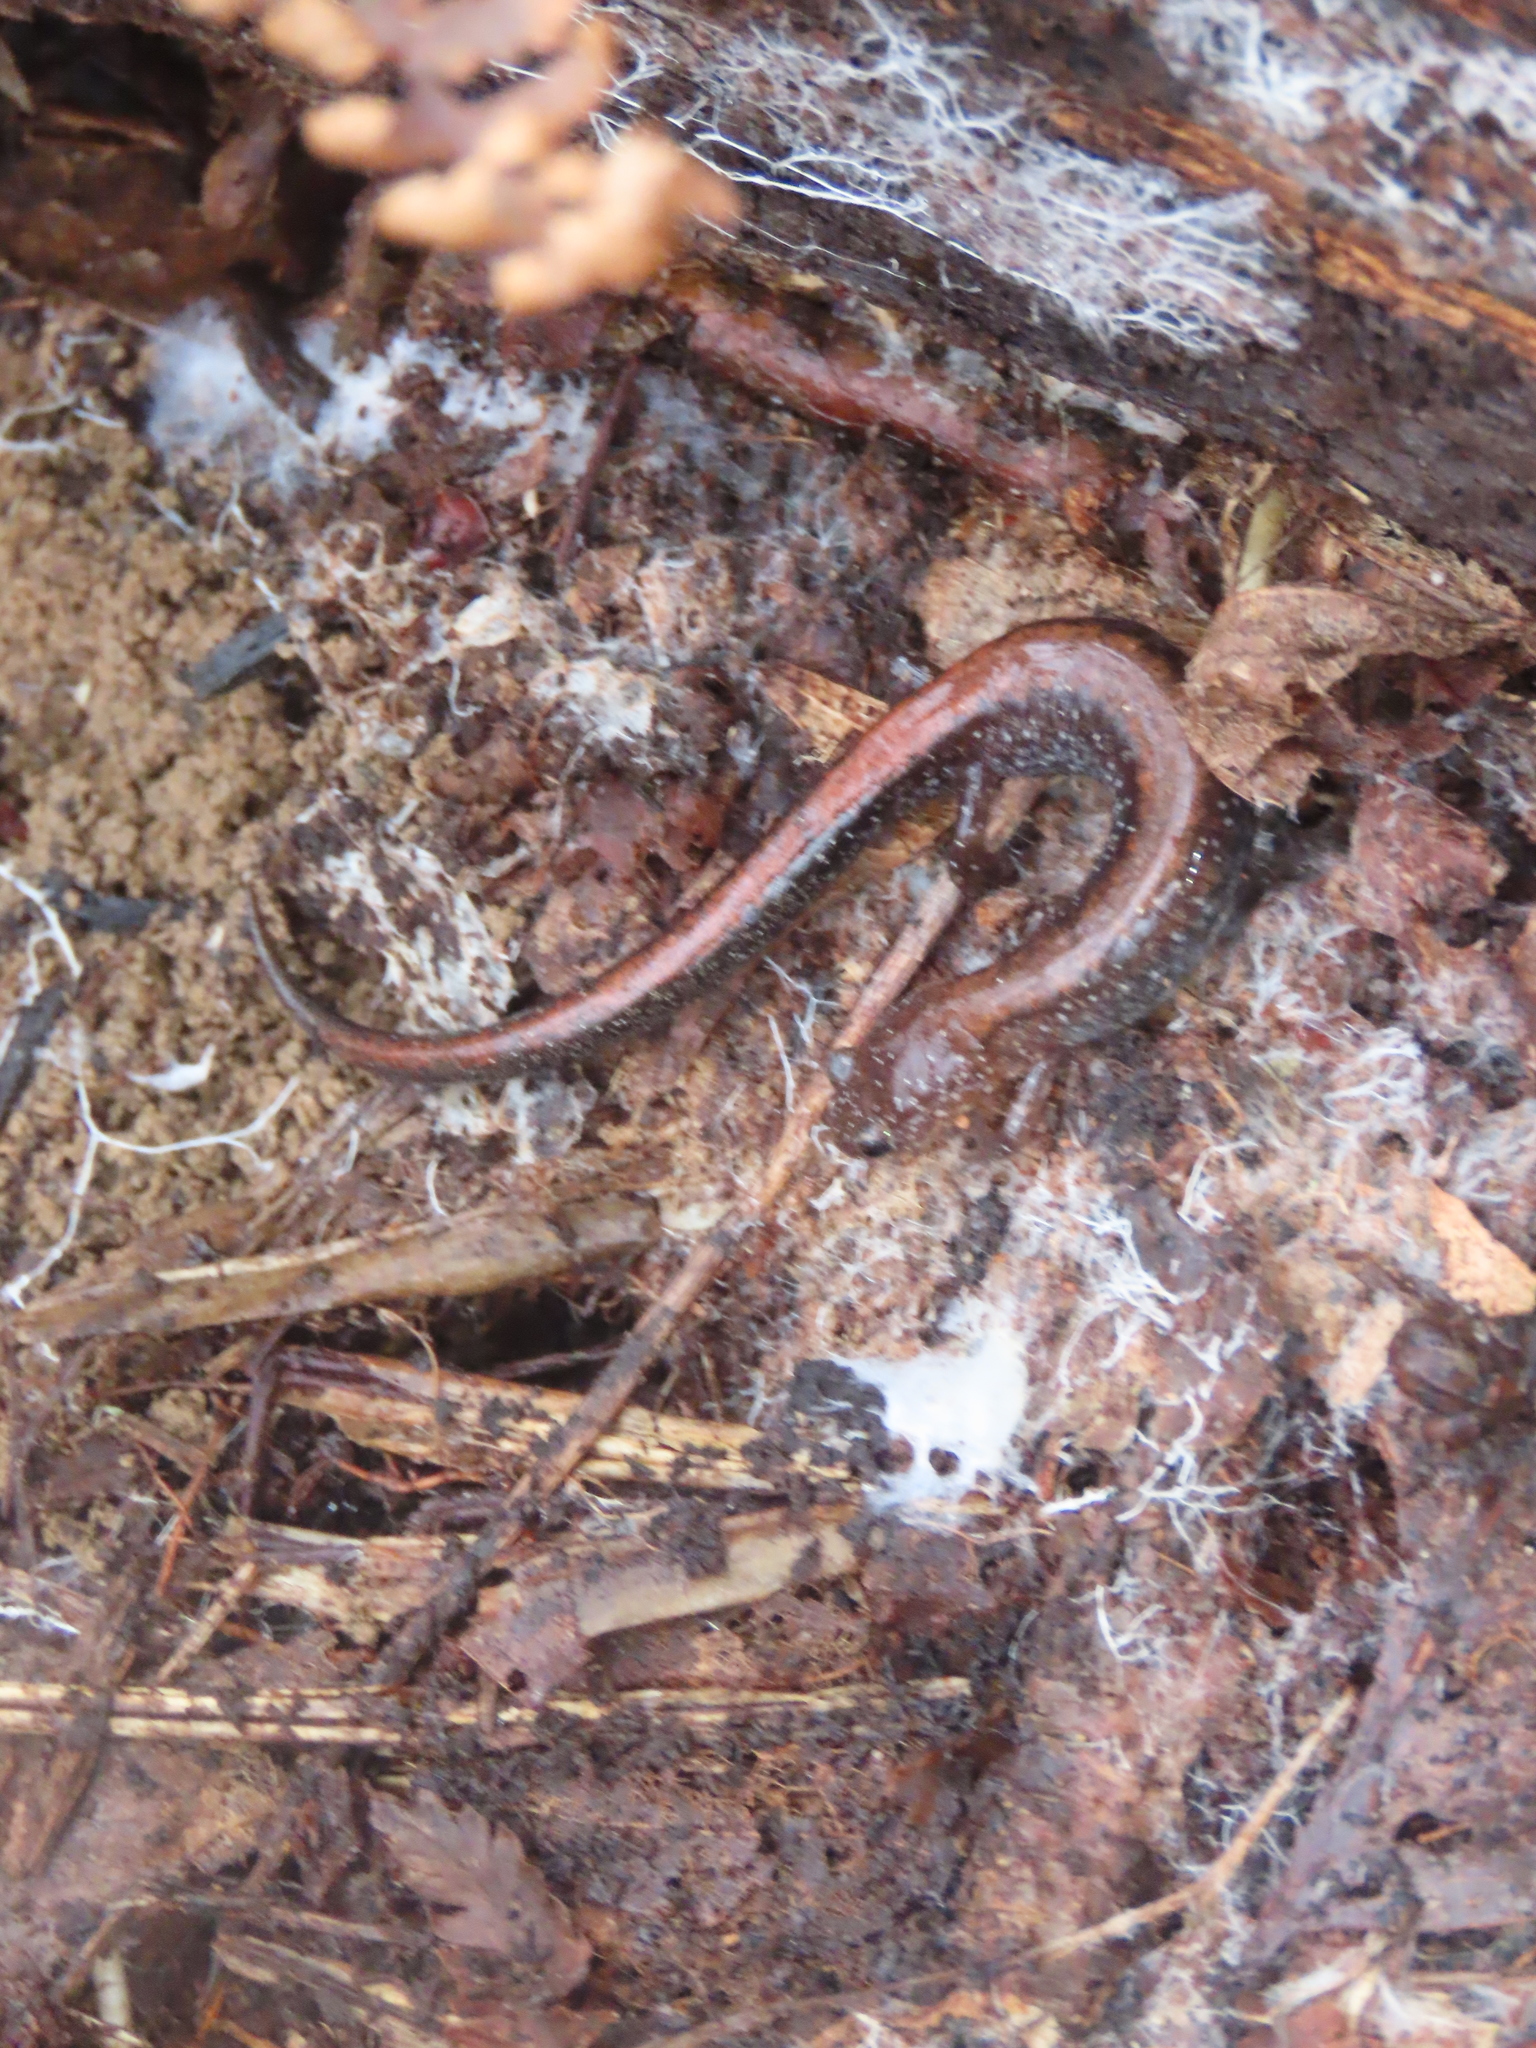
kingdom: Animalia
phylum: Chordata
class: Amphibia
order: Caudata
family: Plethodontidae
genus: Plethodon
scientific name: Plethodon cinereus
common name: Redback salamander
